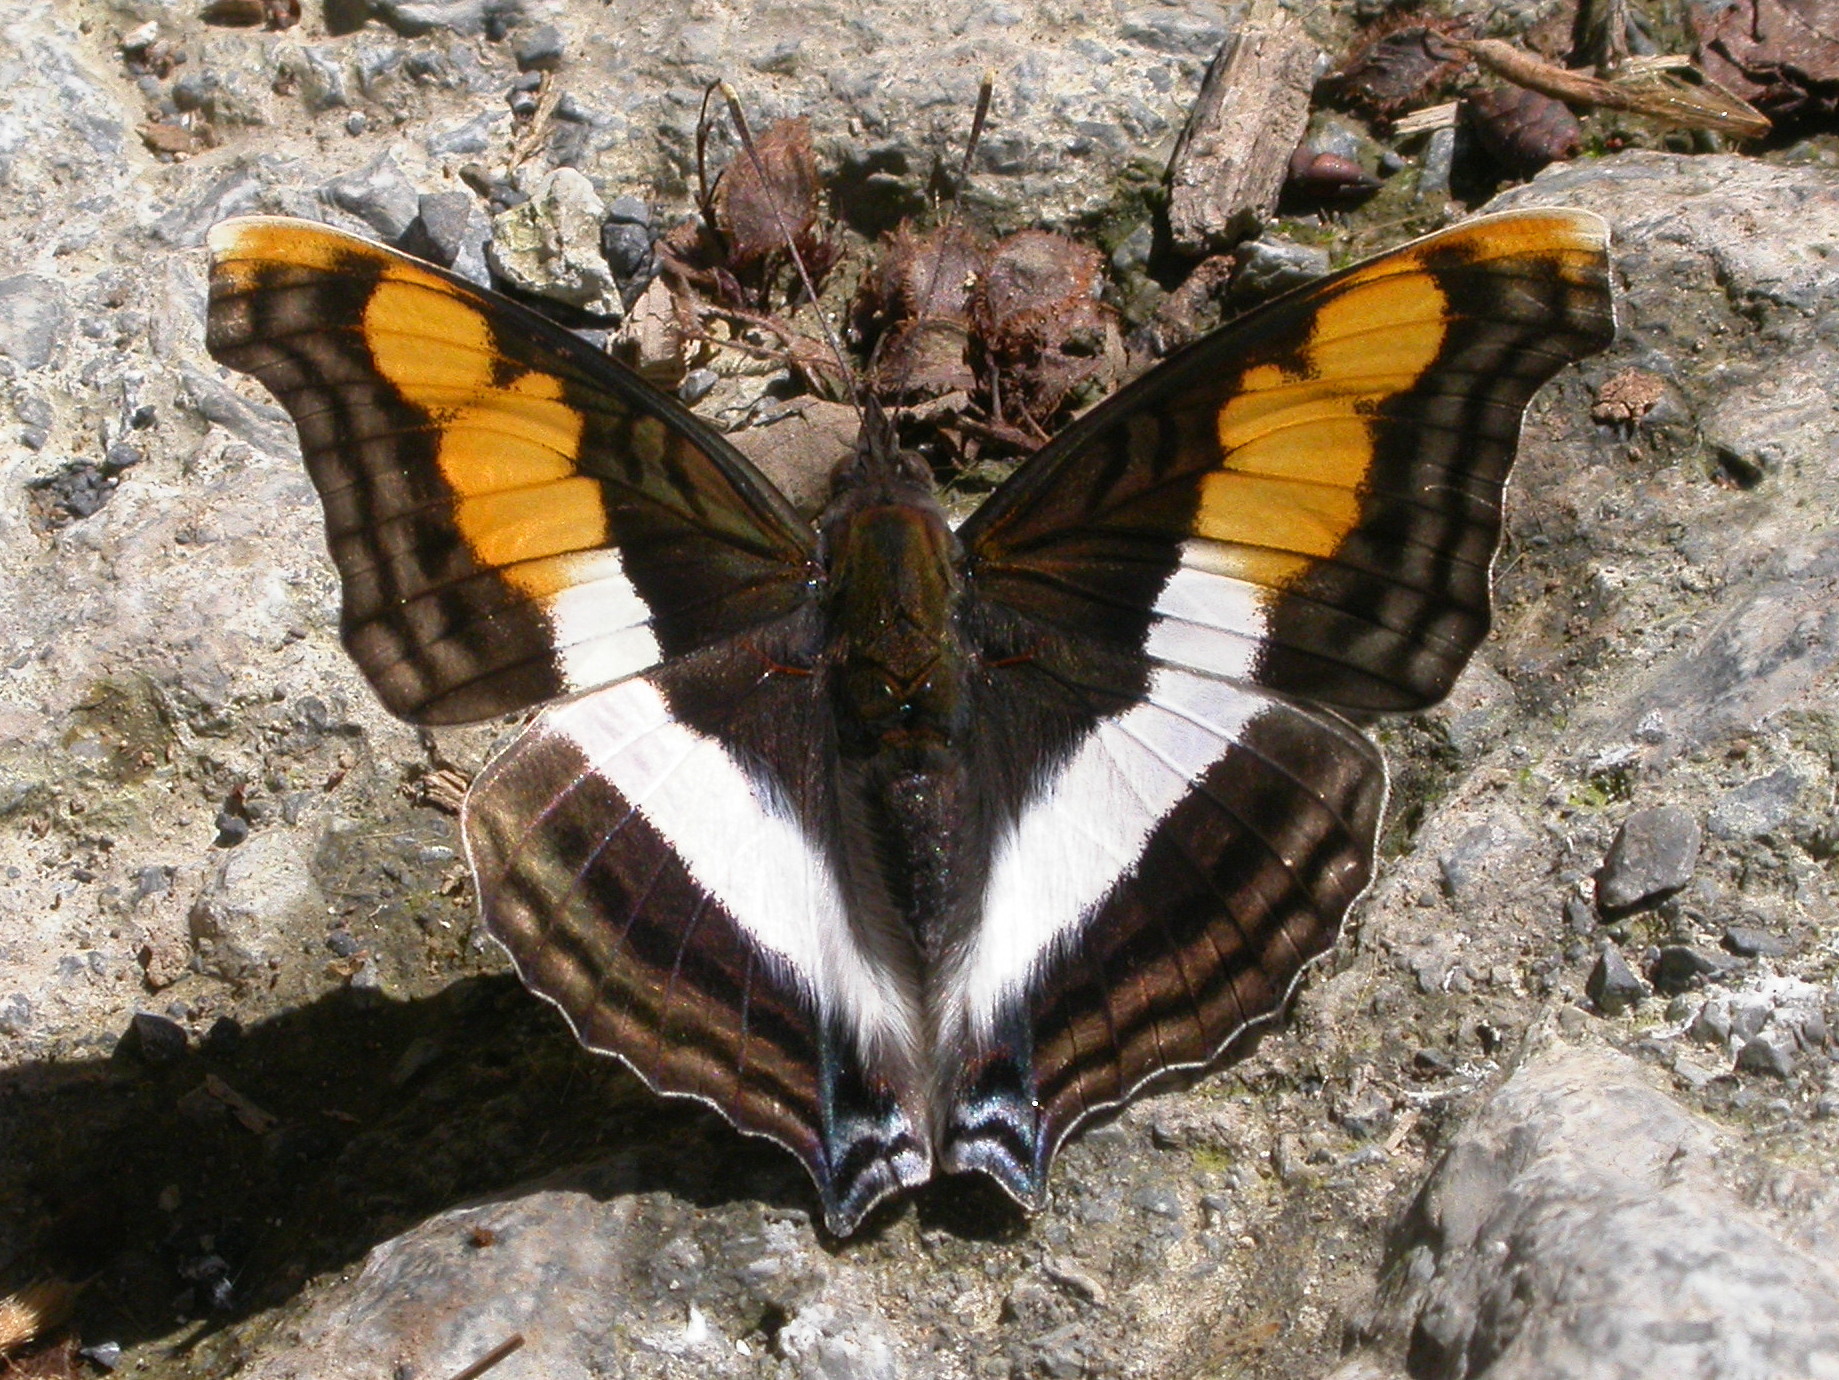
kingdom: Animalia
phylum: Arthropoda
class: Insecta
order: Lepidoptera
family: Nymphalidae
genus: Doxocopa
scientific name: Doxocopa laure
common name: Silver emperor
